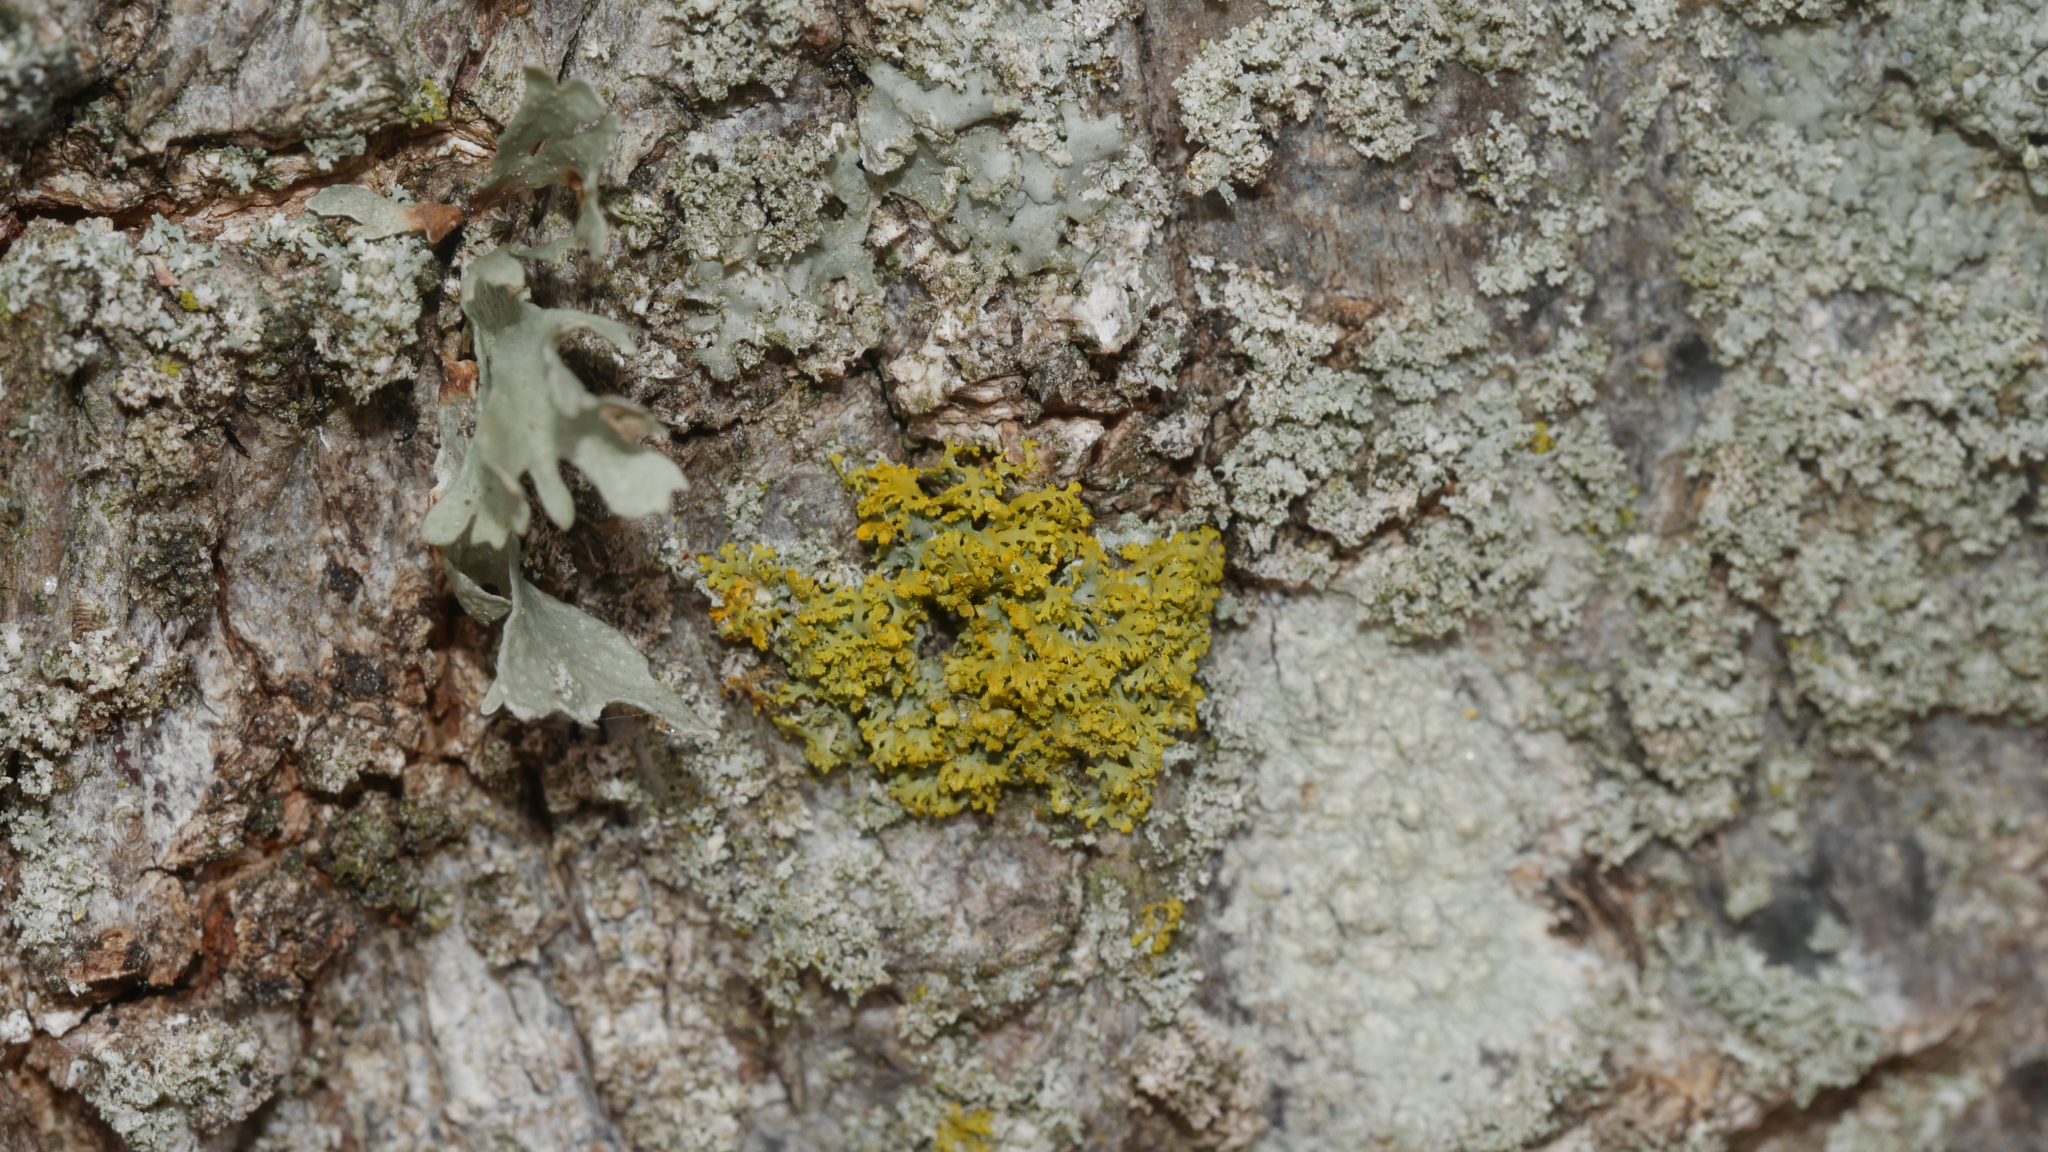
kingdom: Fungi
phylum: Ascomycota
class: Candelariomycetes
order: Candelariales
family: Candelariaceae
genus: Candelaria
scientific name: Candelaria concolor
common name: Candleflame lichen
